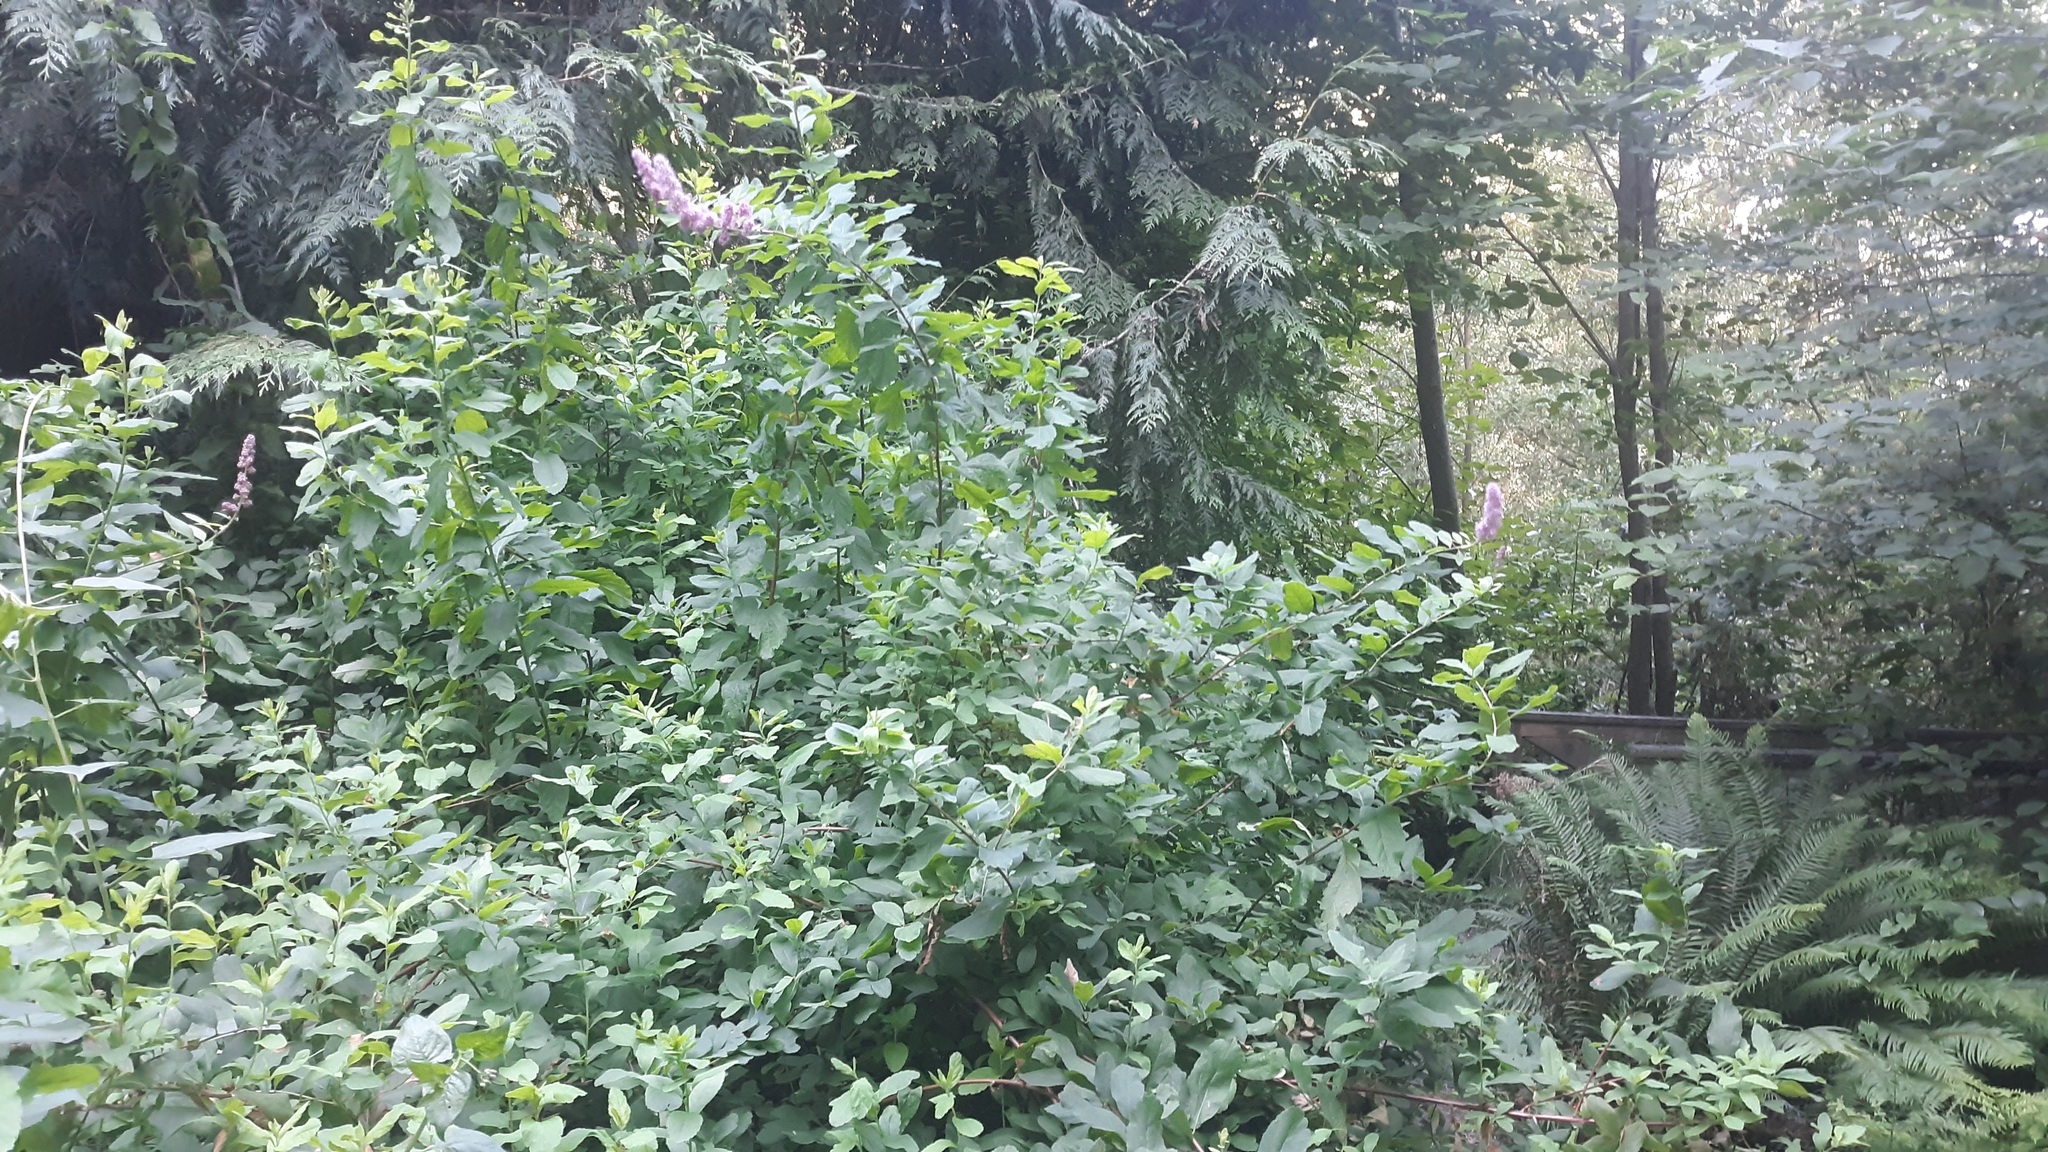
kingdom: Plantae
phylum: Tracheophyta
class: Magnoliopsida
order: Rosales
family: Rosaceae
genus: Spiraea
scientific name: Spiraea douglasii
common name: Steeplebush
